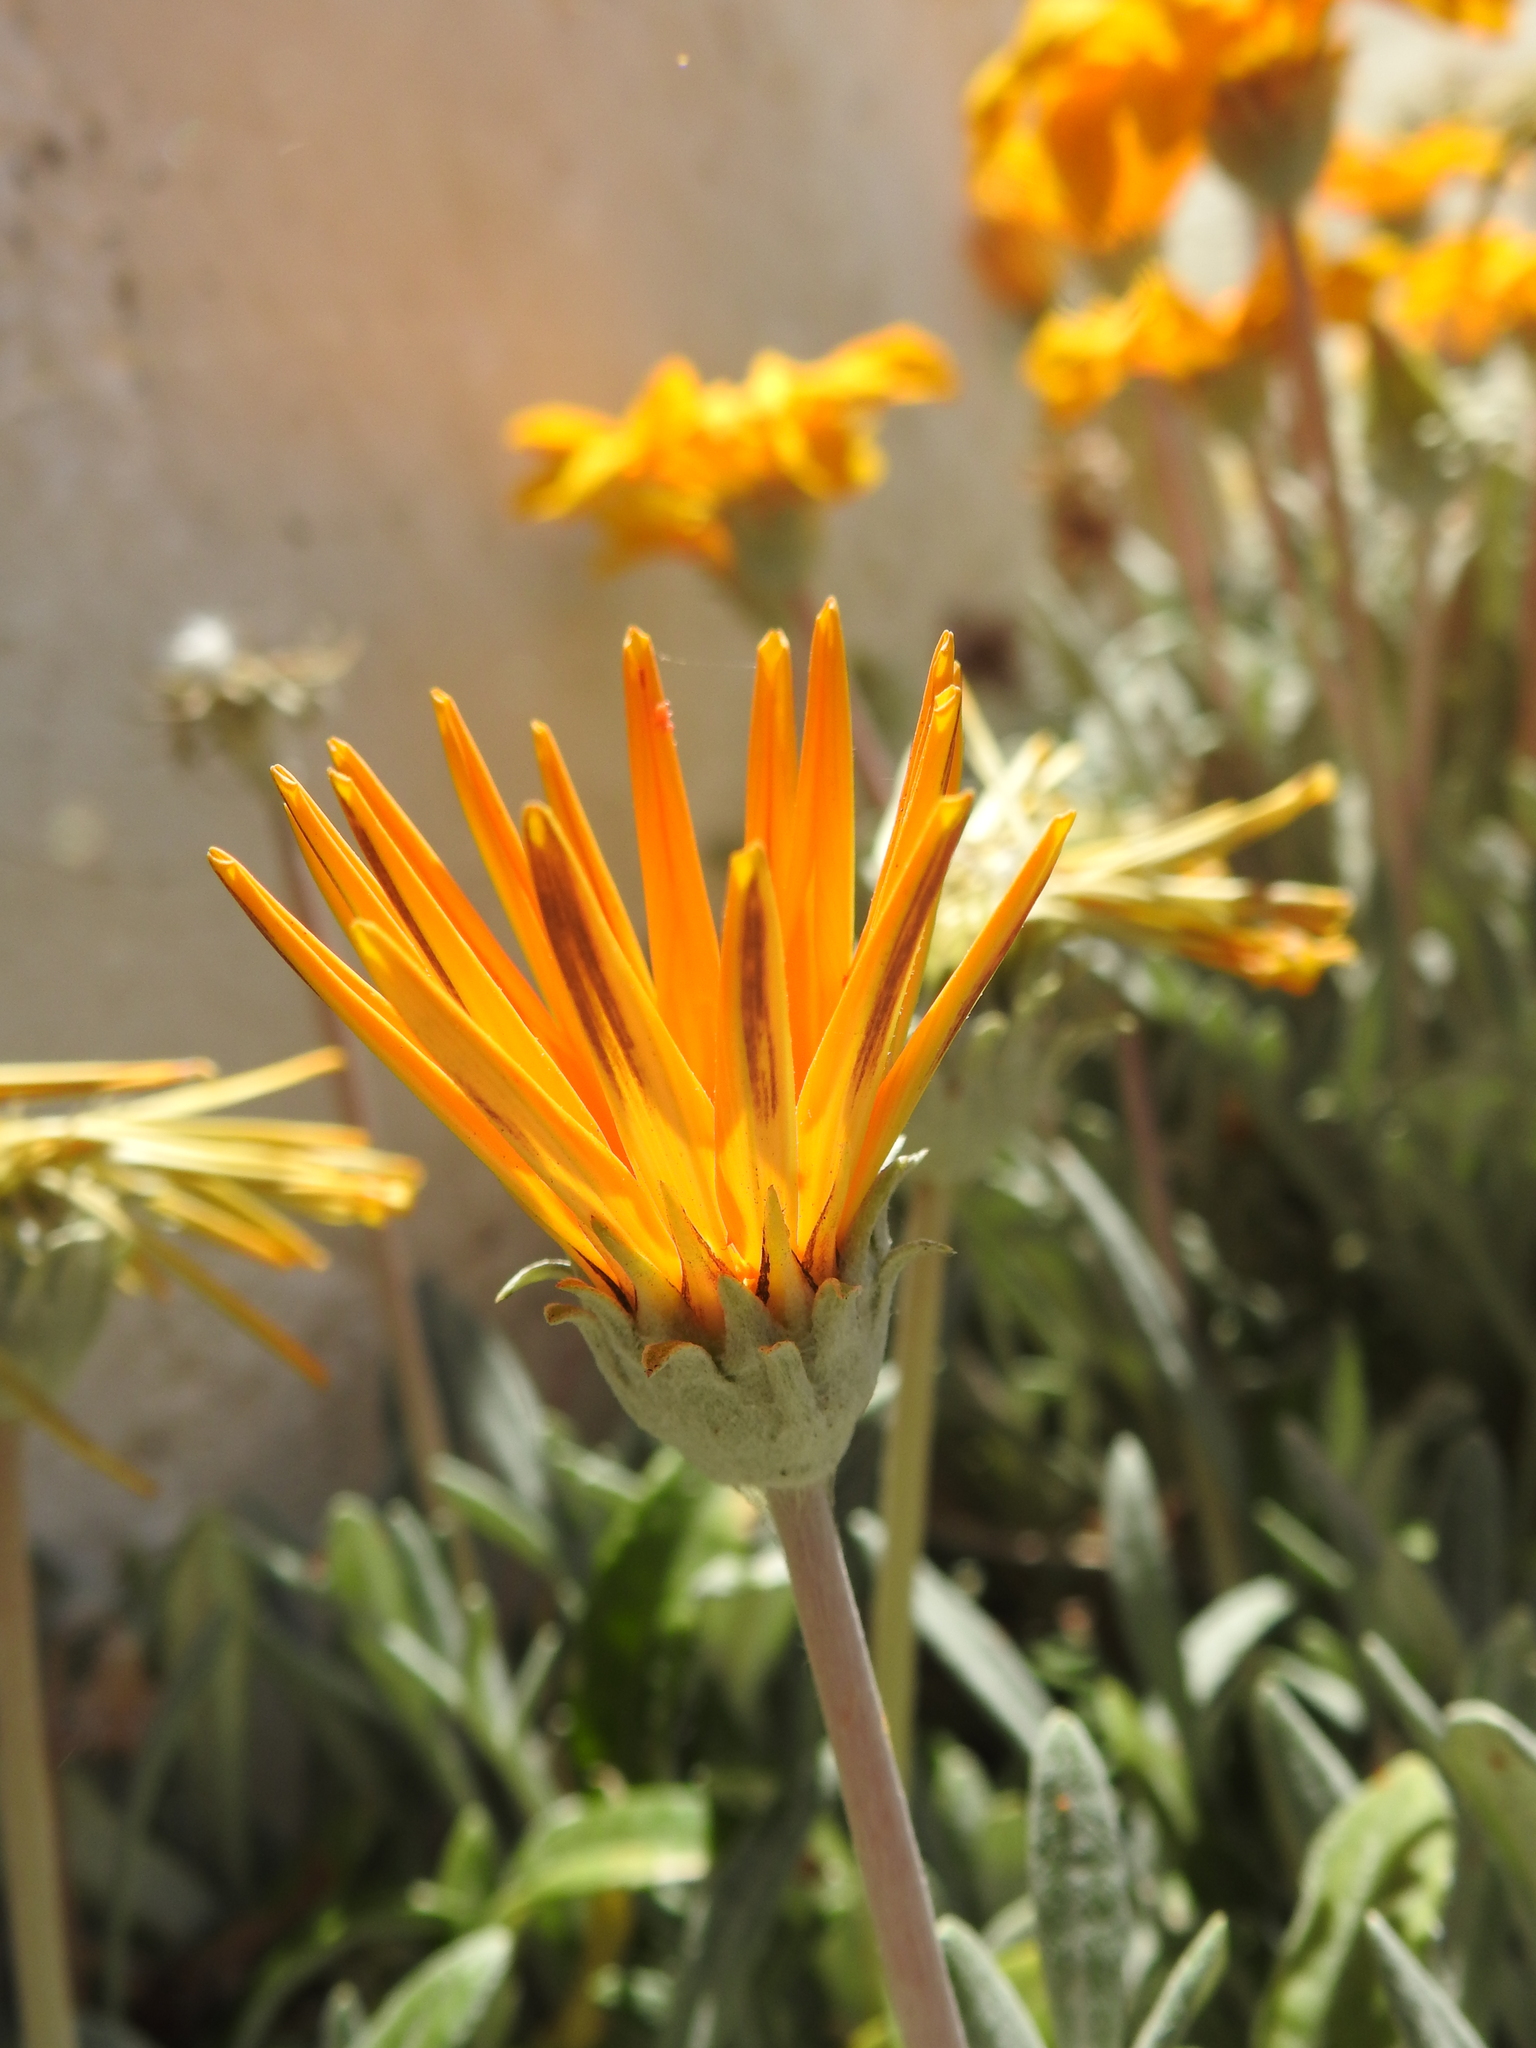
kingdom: Plantae
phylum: Tracheophyta
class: Magnoliopsida
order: Asterales
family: Asteraceae
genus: Gazania
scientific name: Gazania rigens
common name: Treasureflower
